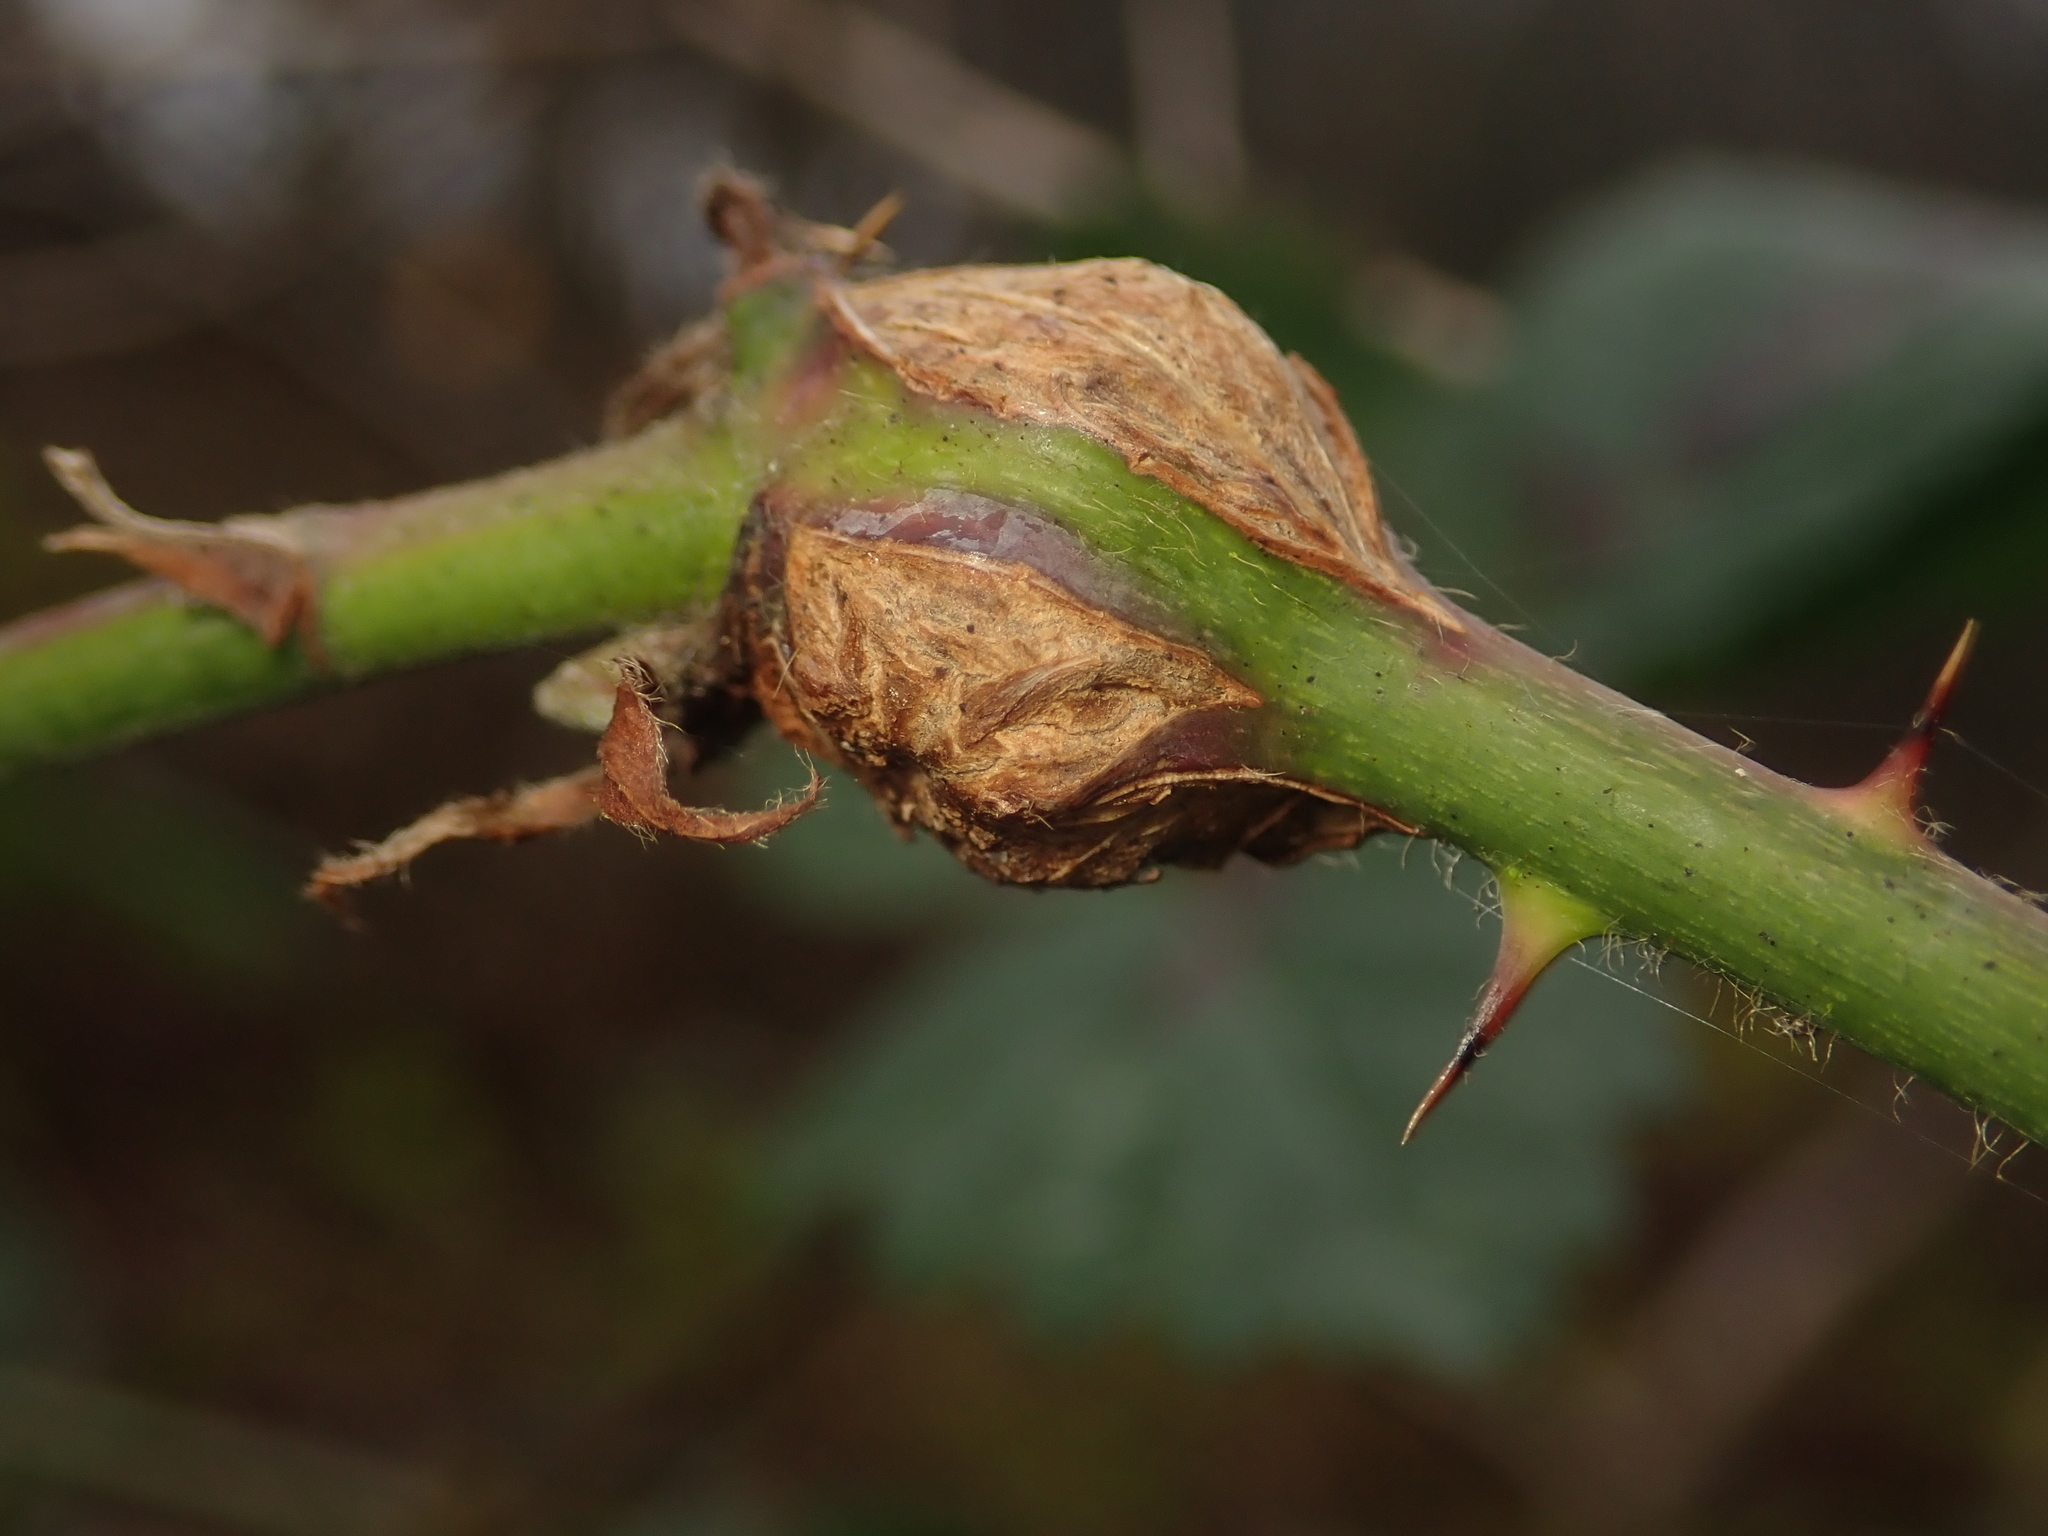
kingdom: Animalia
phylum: Arthropoda
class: Insecta
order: Diptera
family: Cecidomyiidae
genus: Lasioptera
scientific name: Lasioptera rubi
